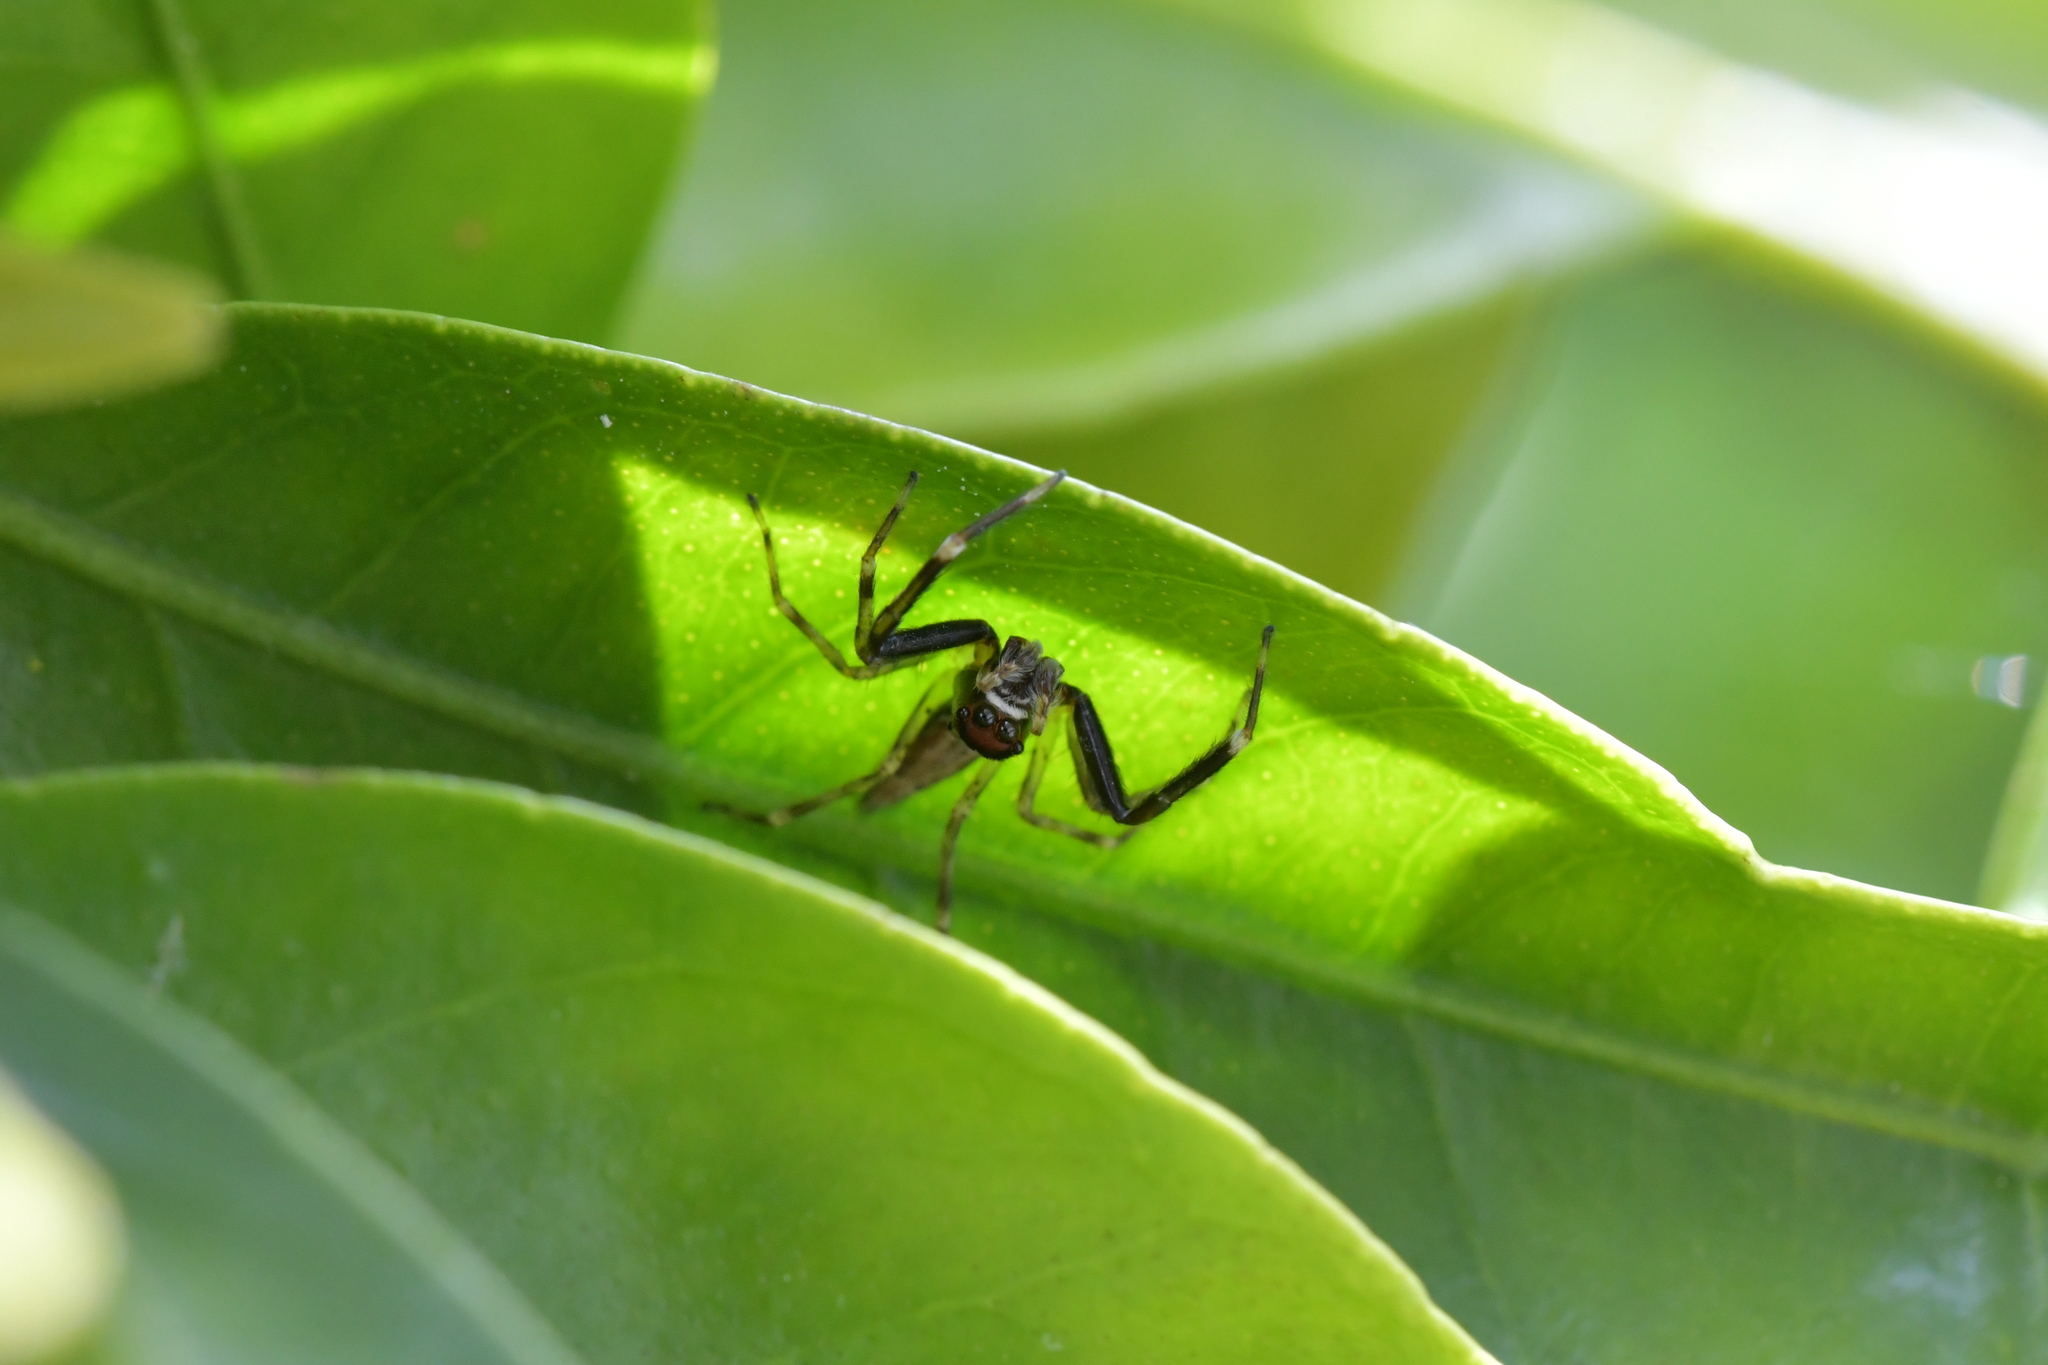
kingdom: Animalia
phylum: Arthropoda
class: Arachnida
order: Araneae
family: Salticidae
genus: Helpis
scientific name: Helpis minitabunda
